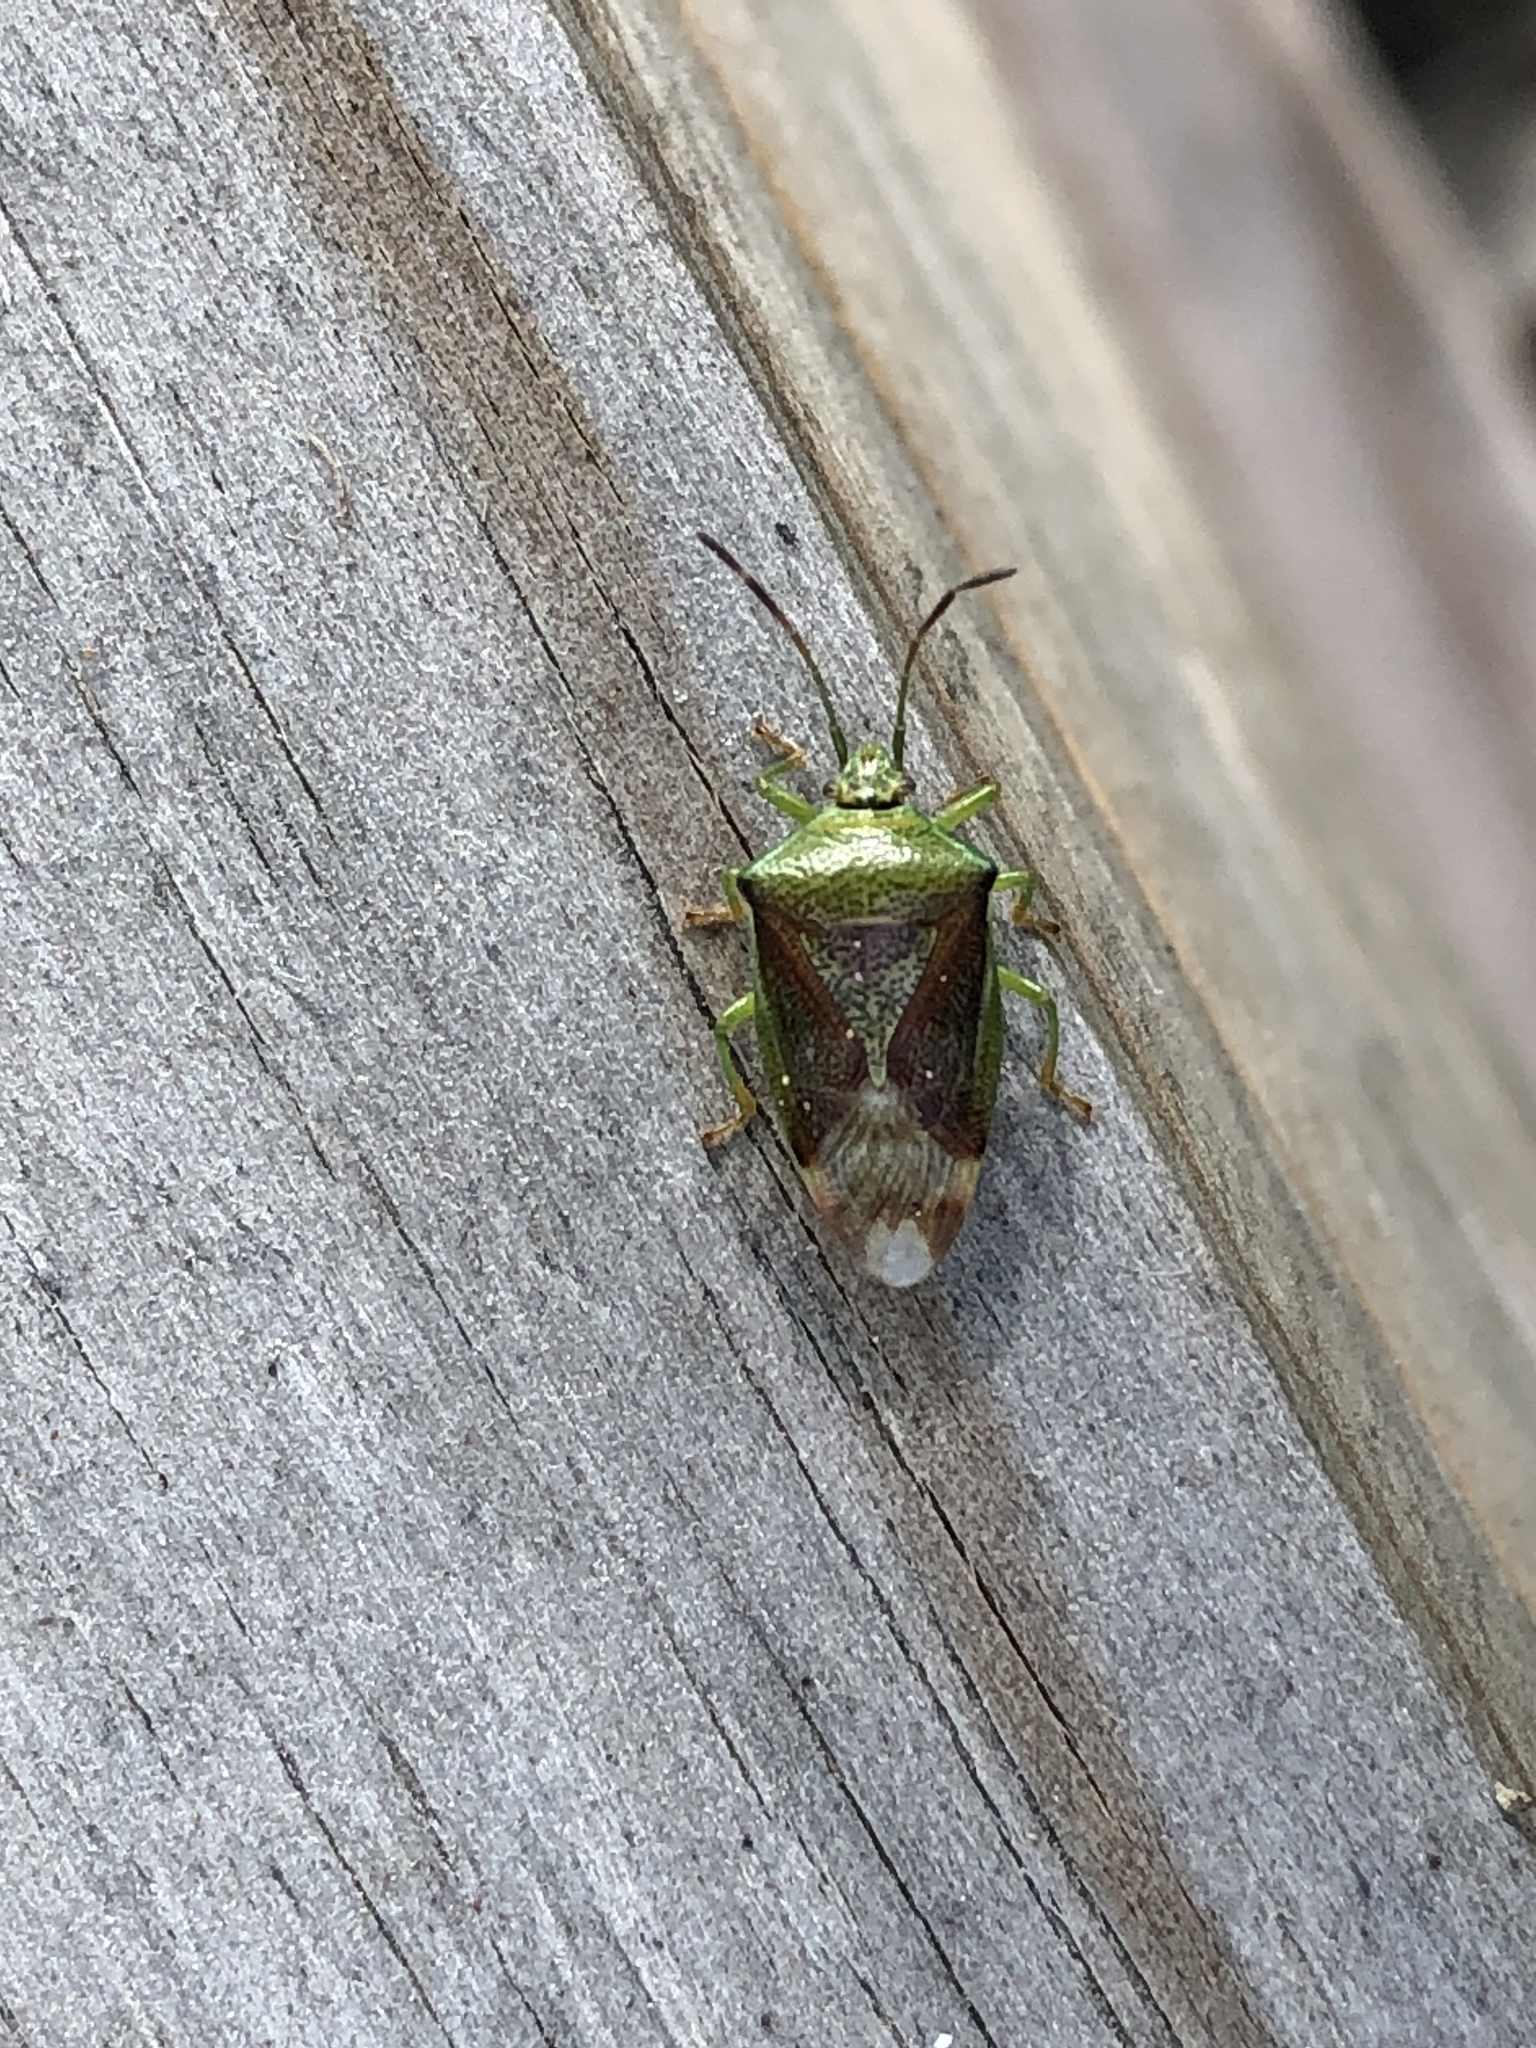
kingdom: Animalia
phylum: Arthropoda
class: Insecta
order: Hemiptera
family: Acanthosomatidae
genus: Elasmostethus
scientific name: Elasmostethus interstinctus
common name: Birch shieldbug
